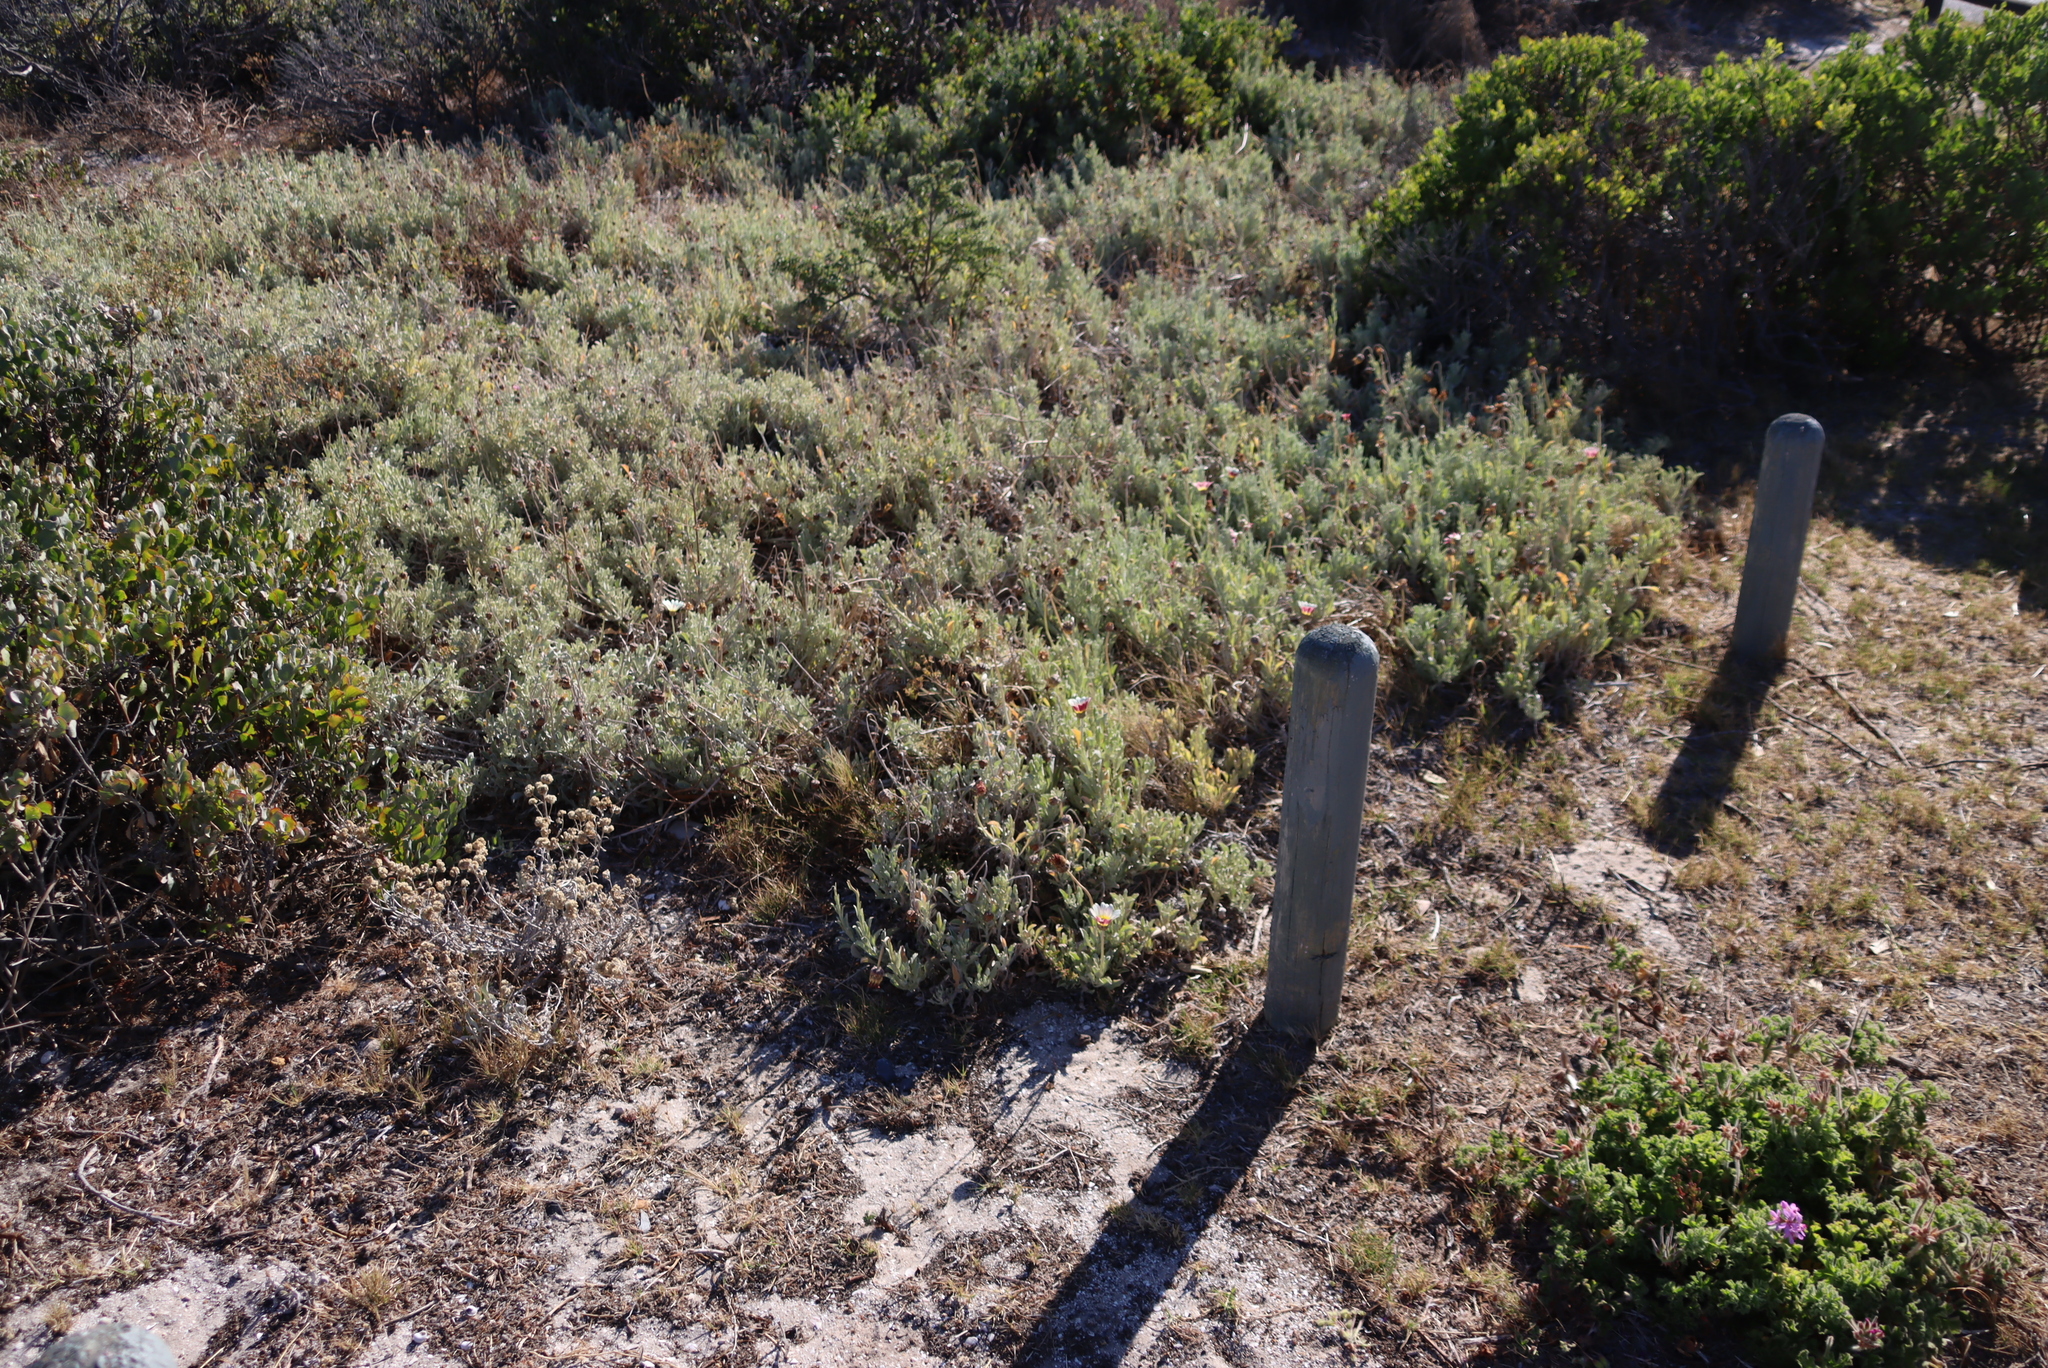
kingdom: Plantae
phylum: Tracheophyta
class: Magnoliopsida
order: Asterales
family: Asteraceae
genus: Arctotis
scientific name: Arctotis stoechadifolia
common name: African daisy
